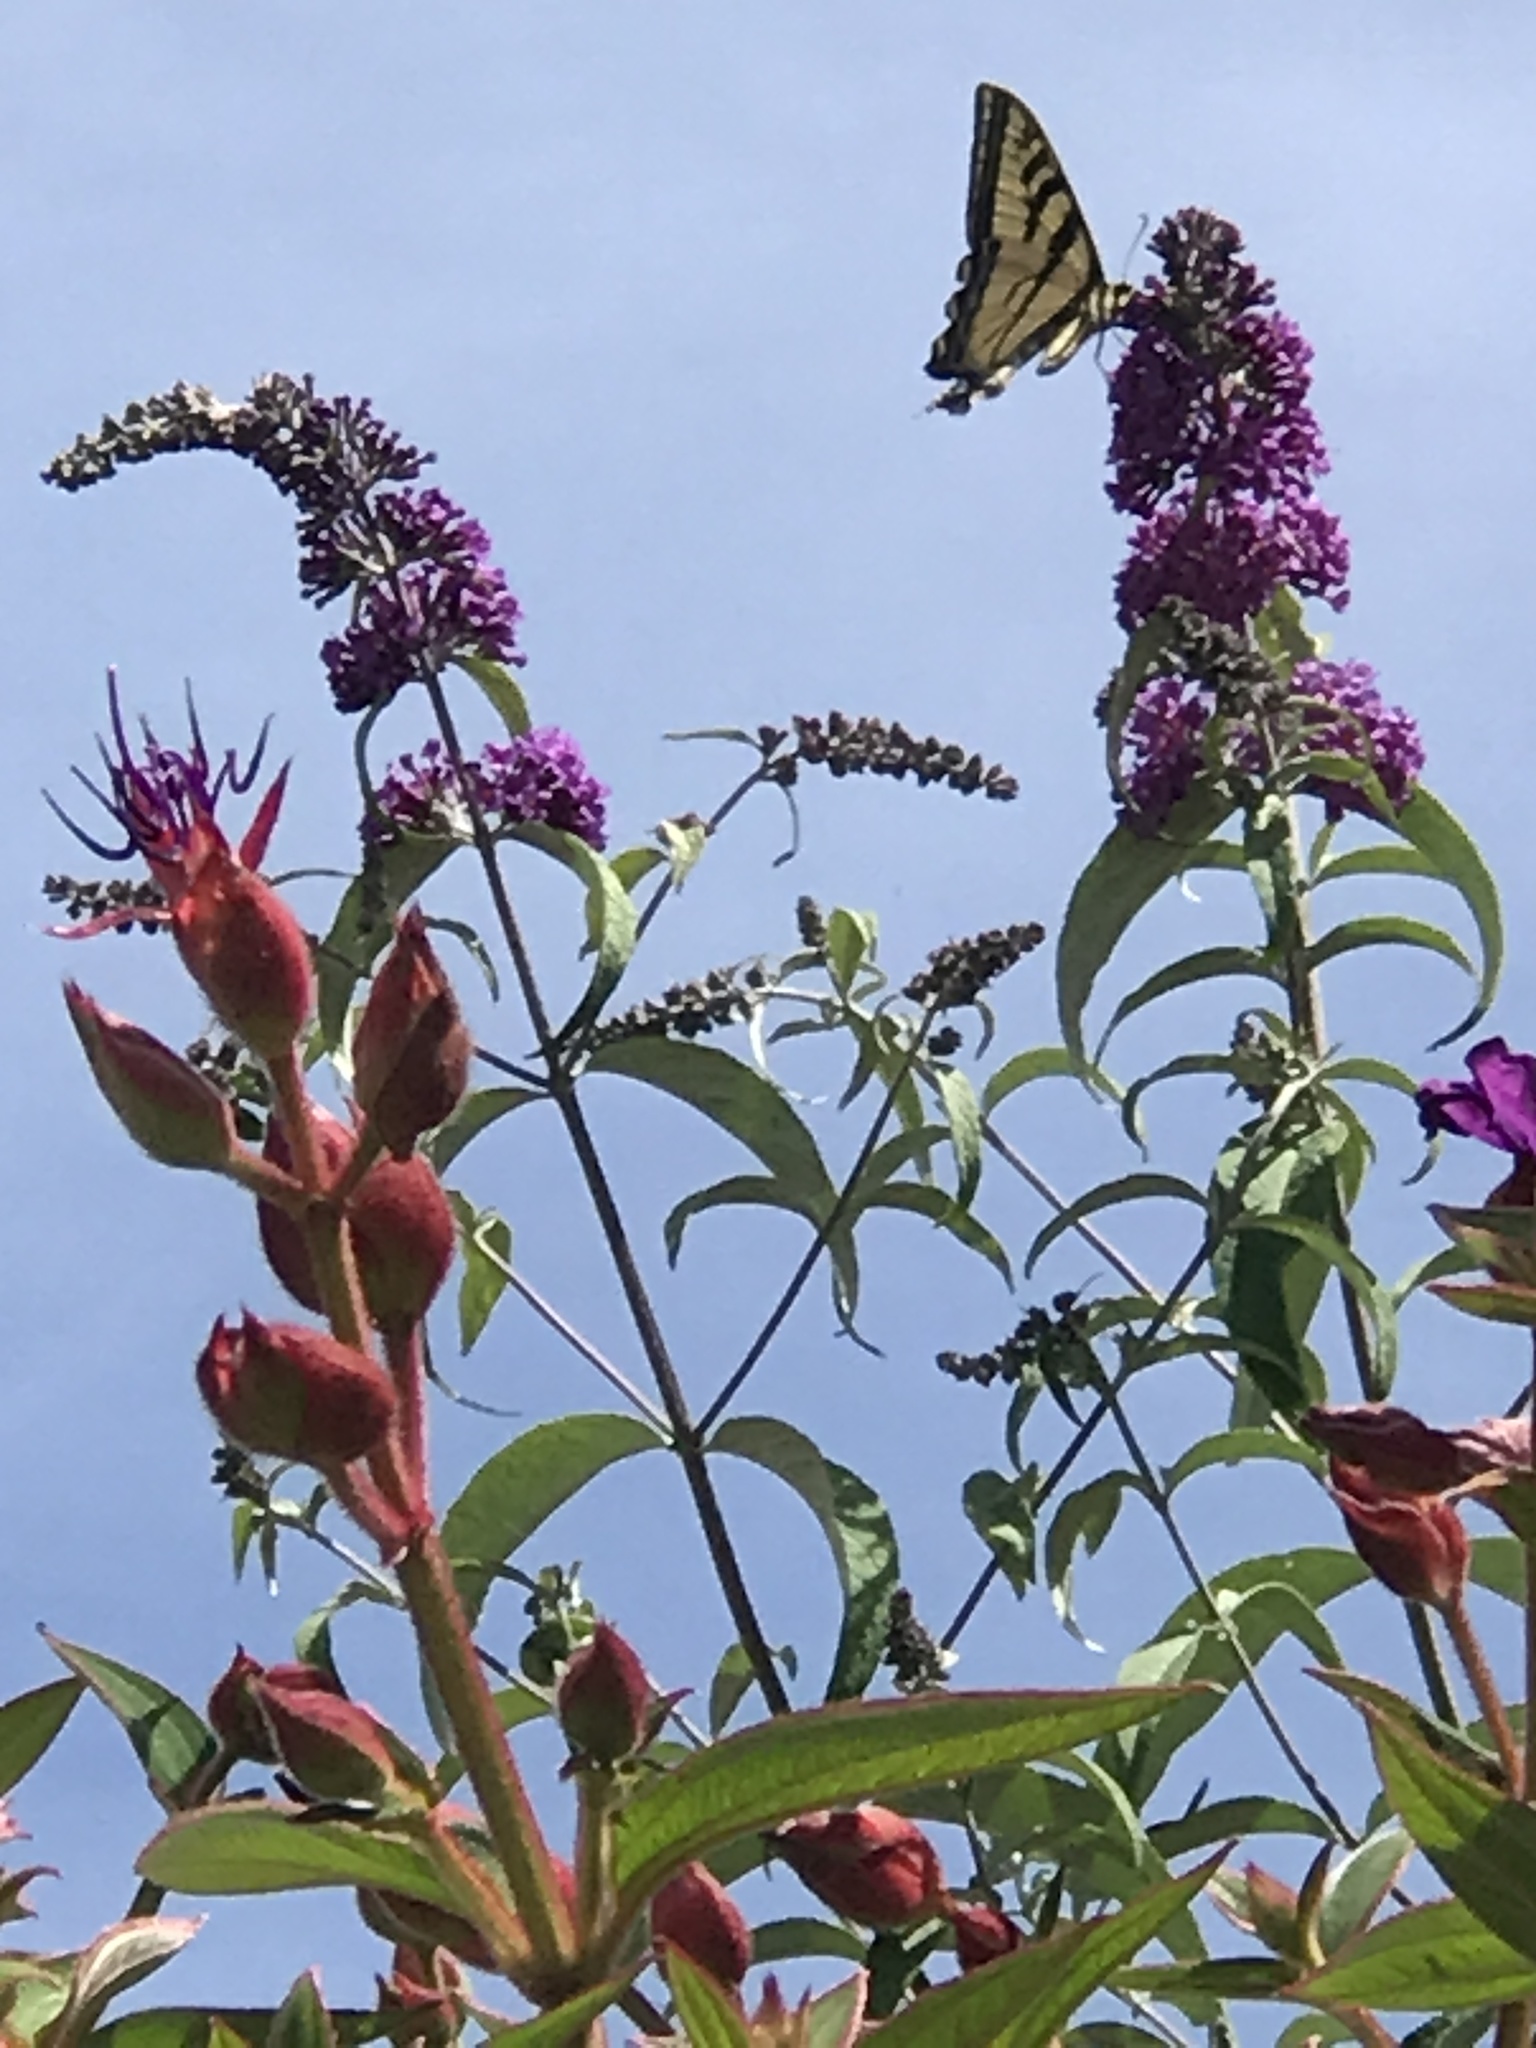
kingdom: Animalia
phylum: Arthropoda
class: Insecta
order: Lepidoptera
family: Papilionidae
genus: Papilio
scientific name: Papilio rutulus
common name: Western tiger swallowtail
